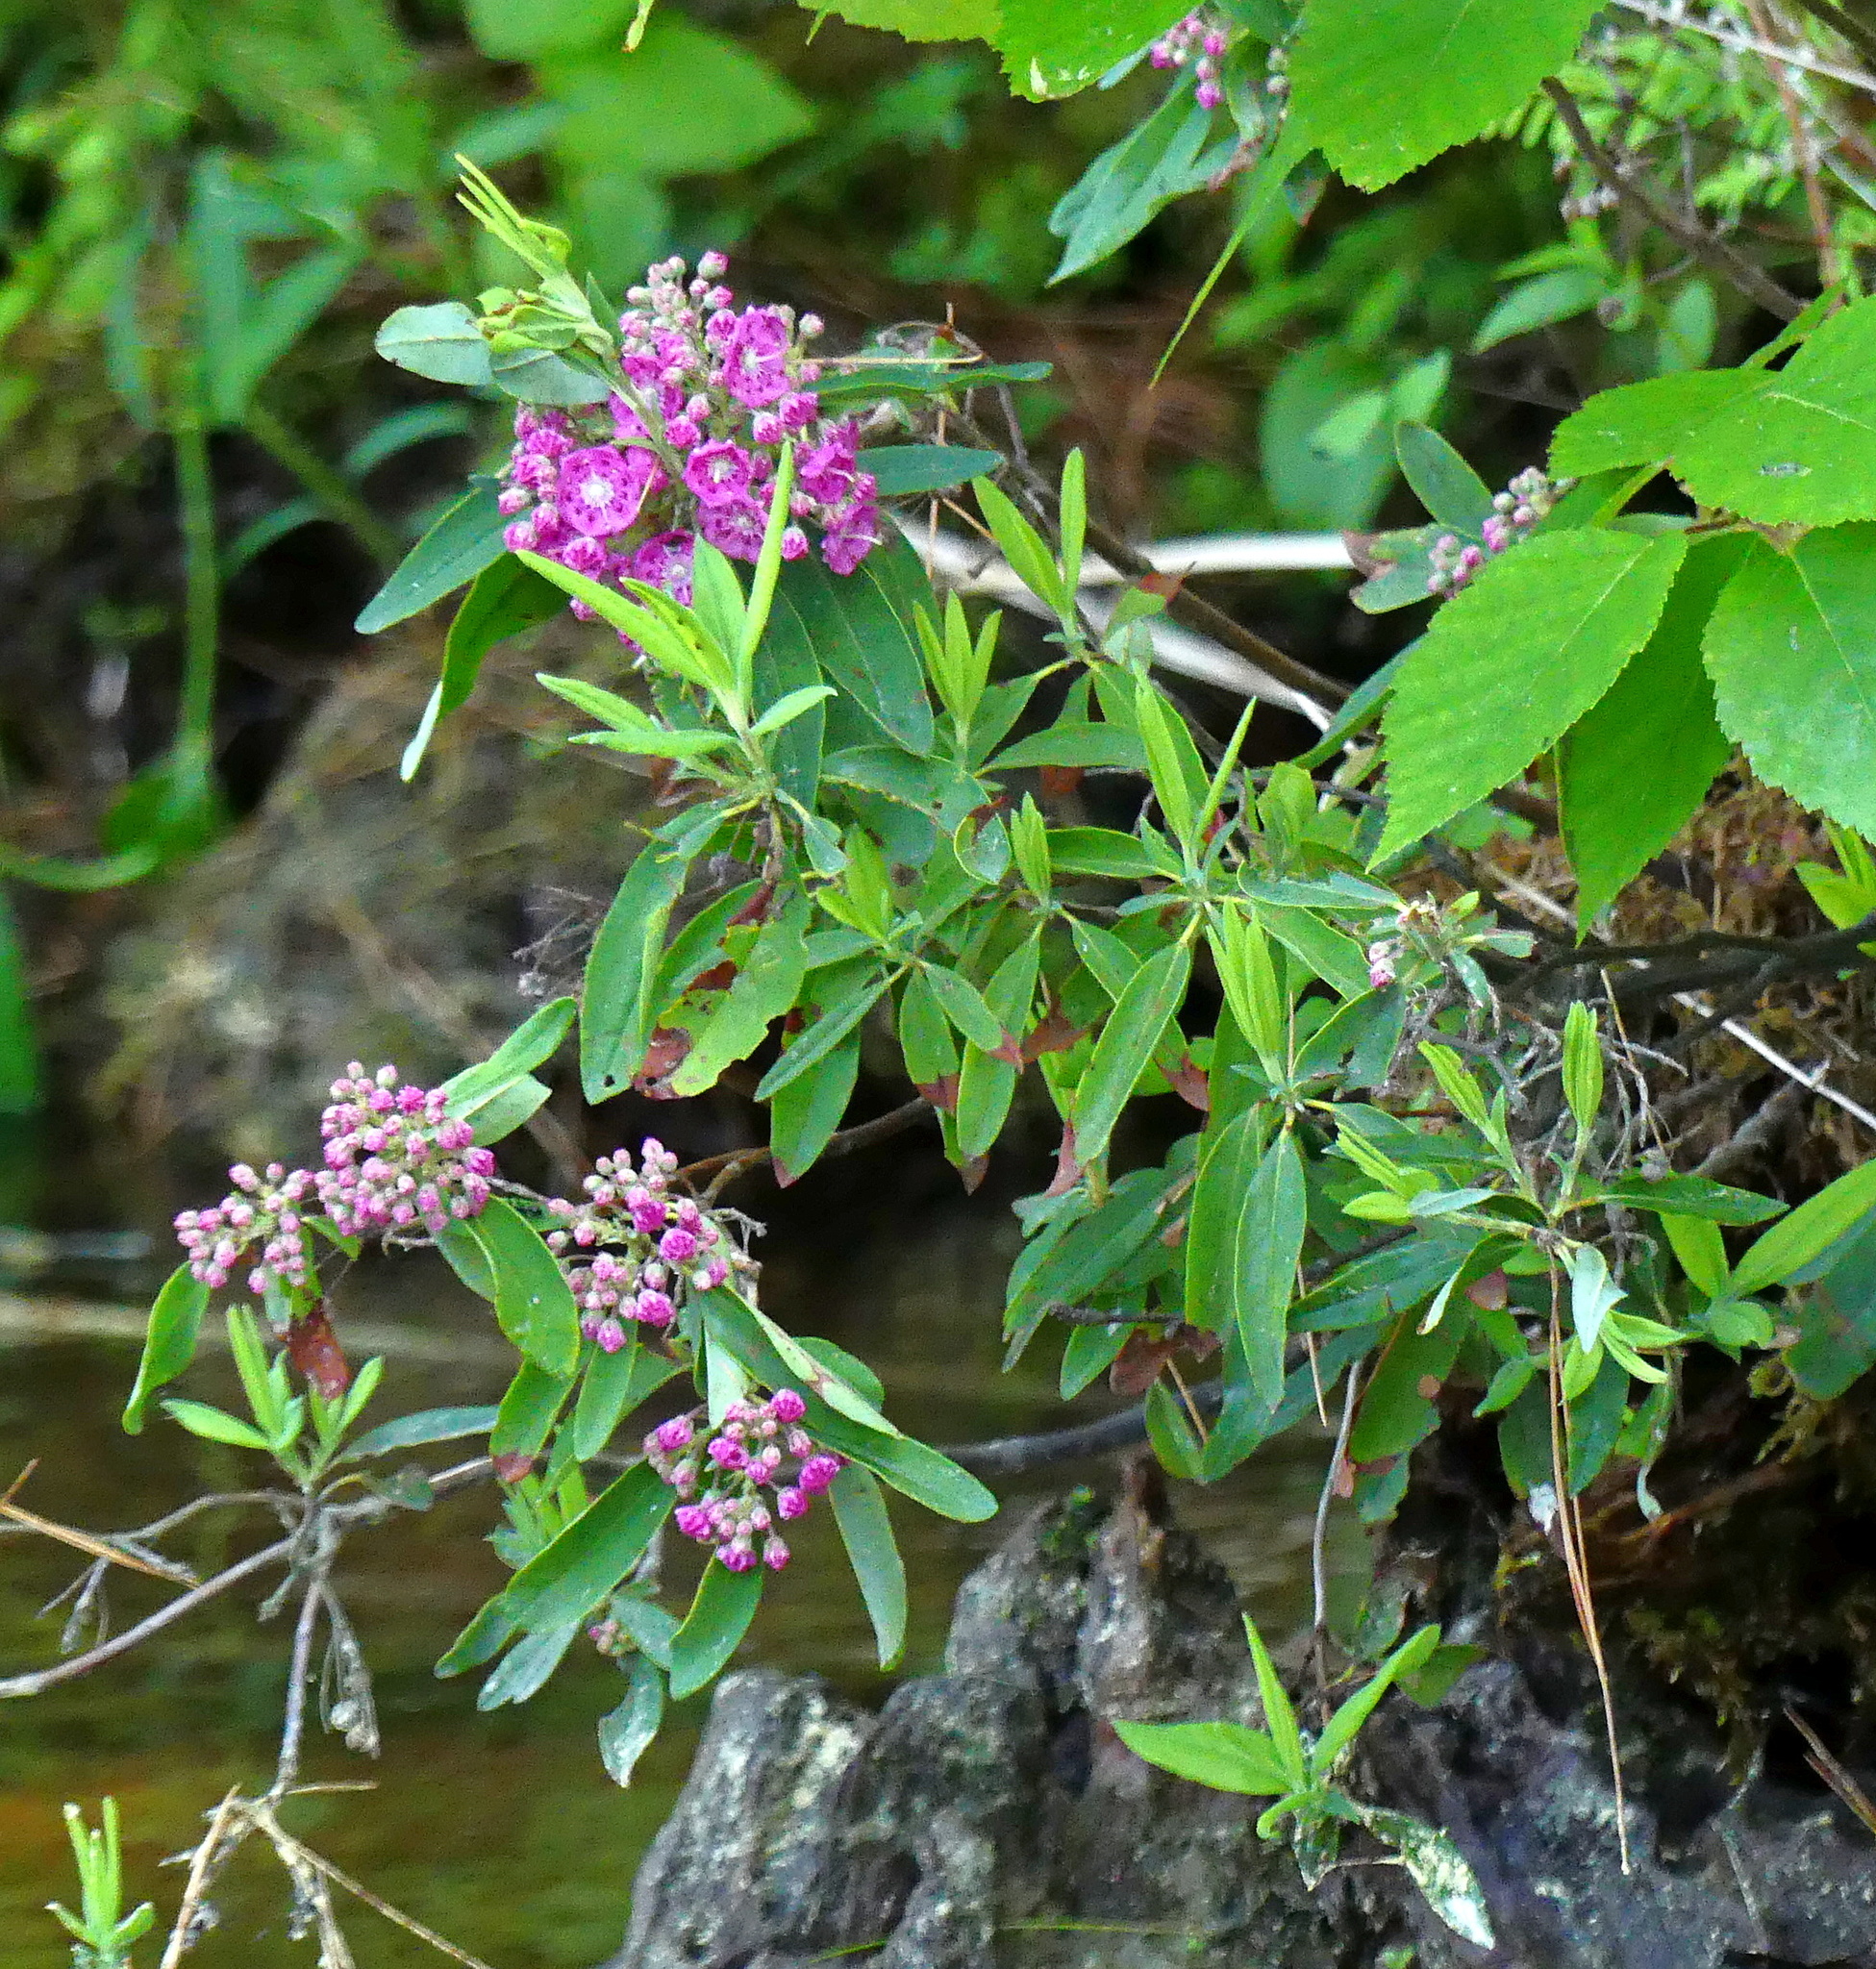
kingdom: Plantae
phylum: Tracheophyta
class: Magnoliopsida
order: Ericales
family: Ericaceae
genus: Kalmia
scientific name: Kalmia angustifolia
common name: Sheep-laurel
